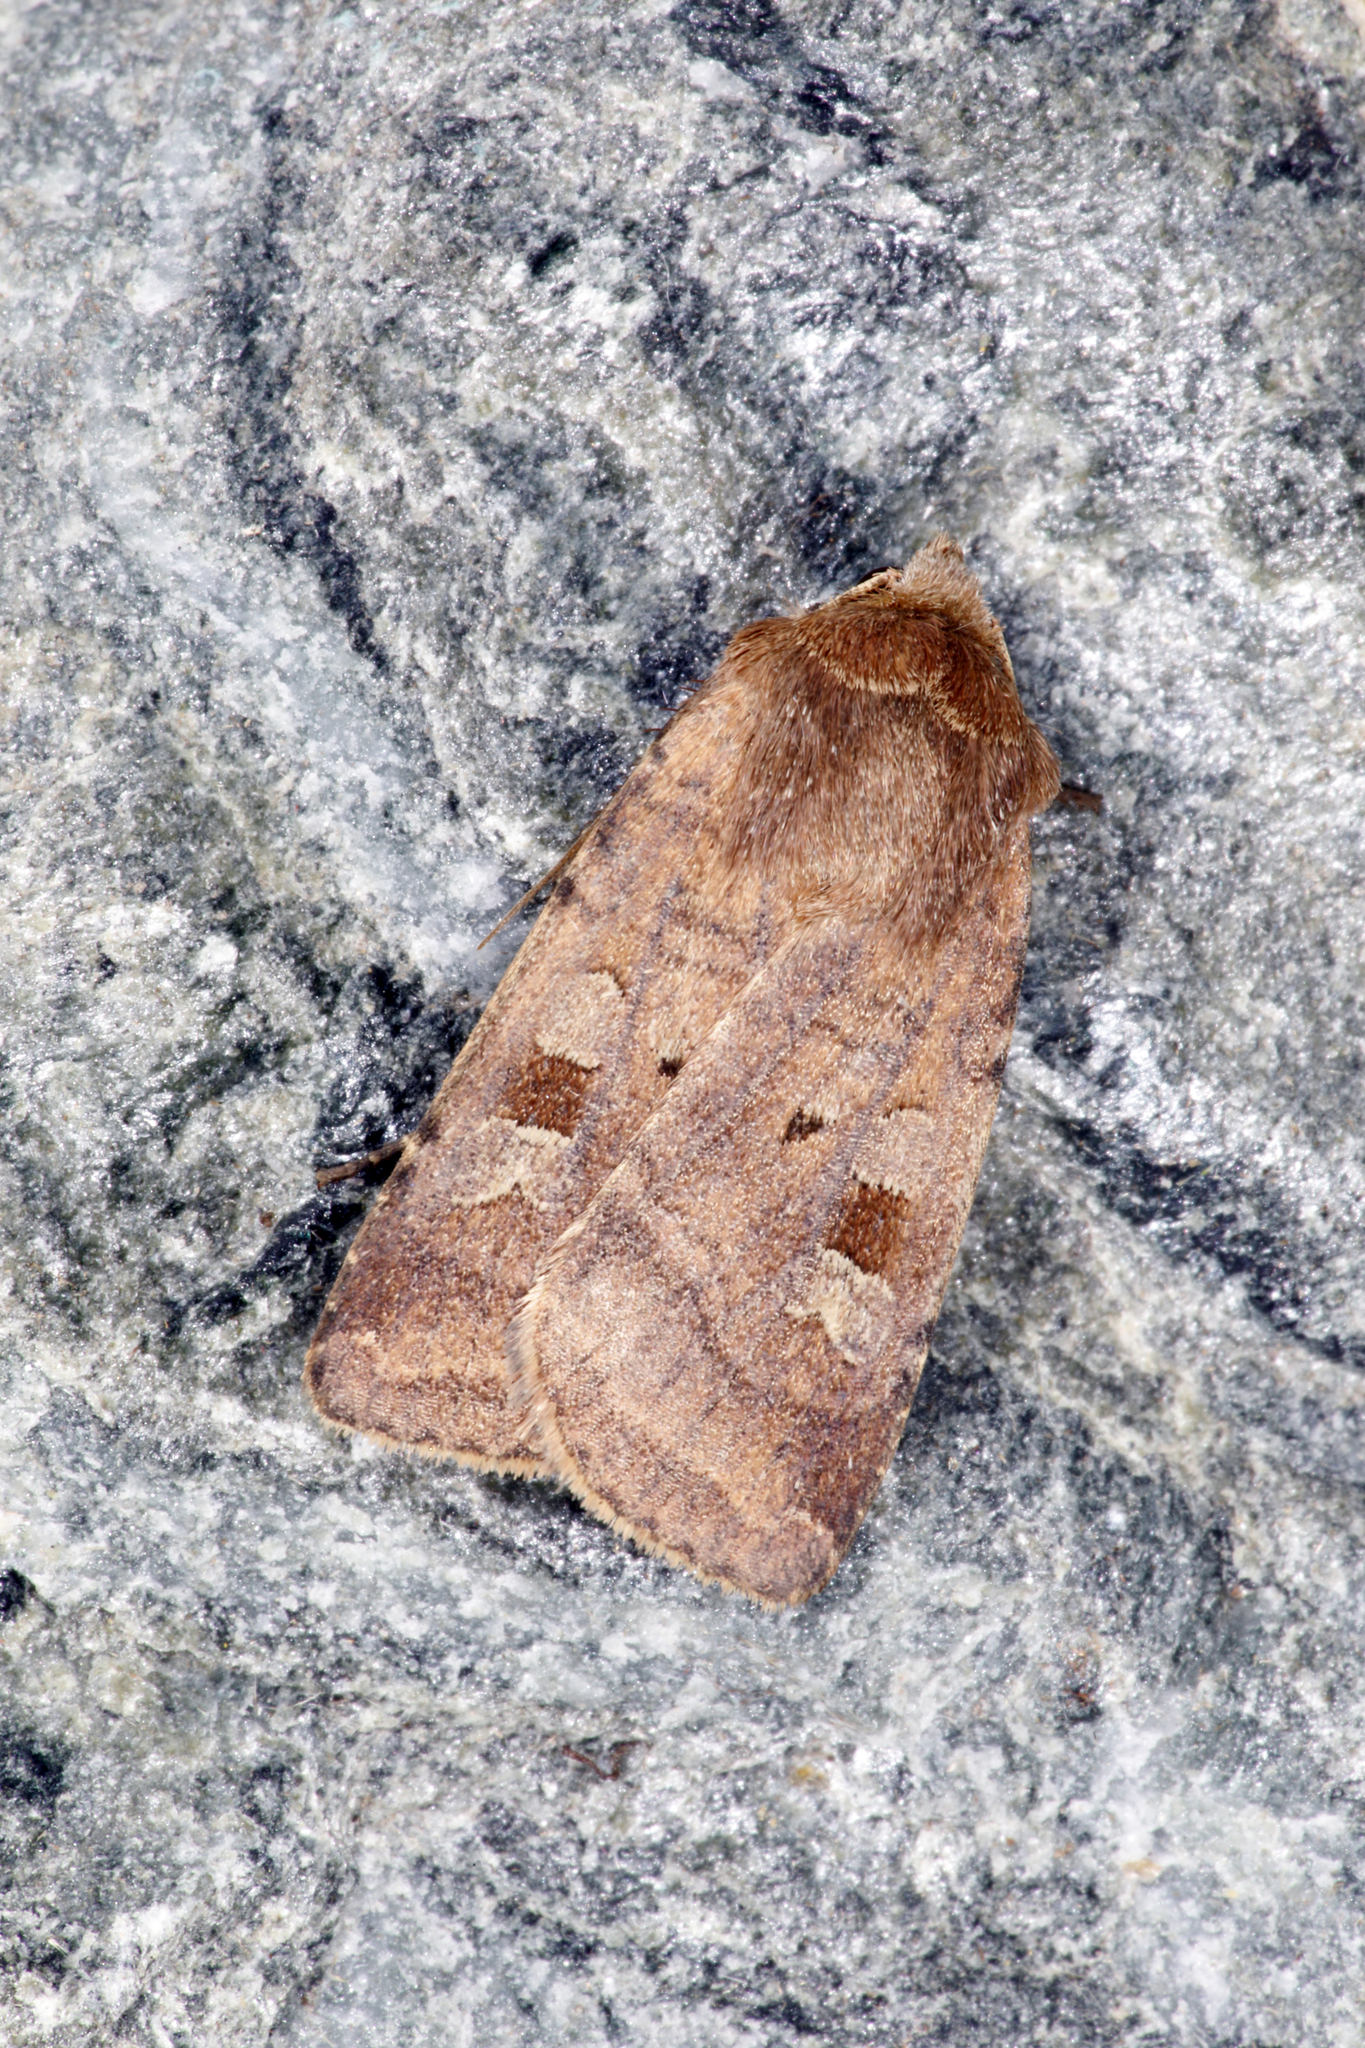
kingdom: Animalia
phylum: Arthropoda
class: Insecta
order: Lepidoptera
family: Noctuidae
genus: Diarsia
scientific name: Diarsia rubi
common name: Small square-spot
